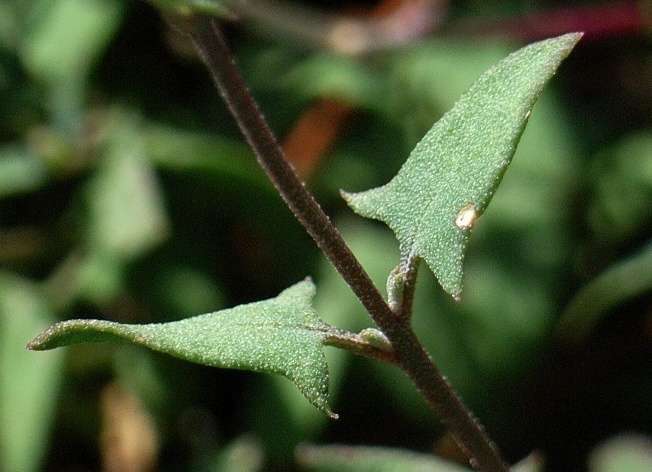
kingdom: Plantae
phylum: Tracheophyta
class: Magnoliopsida
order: Caryophyllales
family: Amaranthaceae
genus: Chenopodium
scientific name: Chenopodium nutans
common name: Climbing-saltbush
